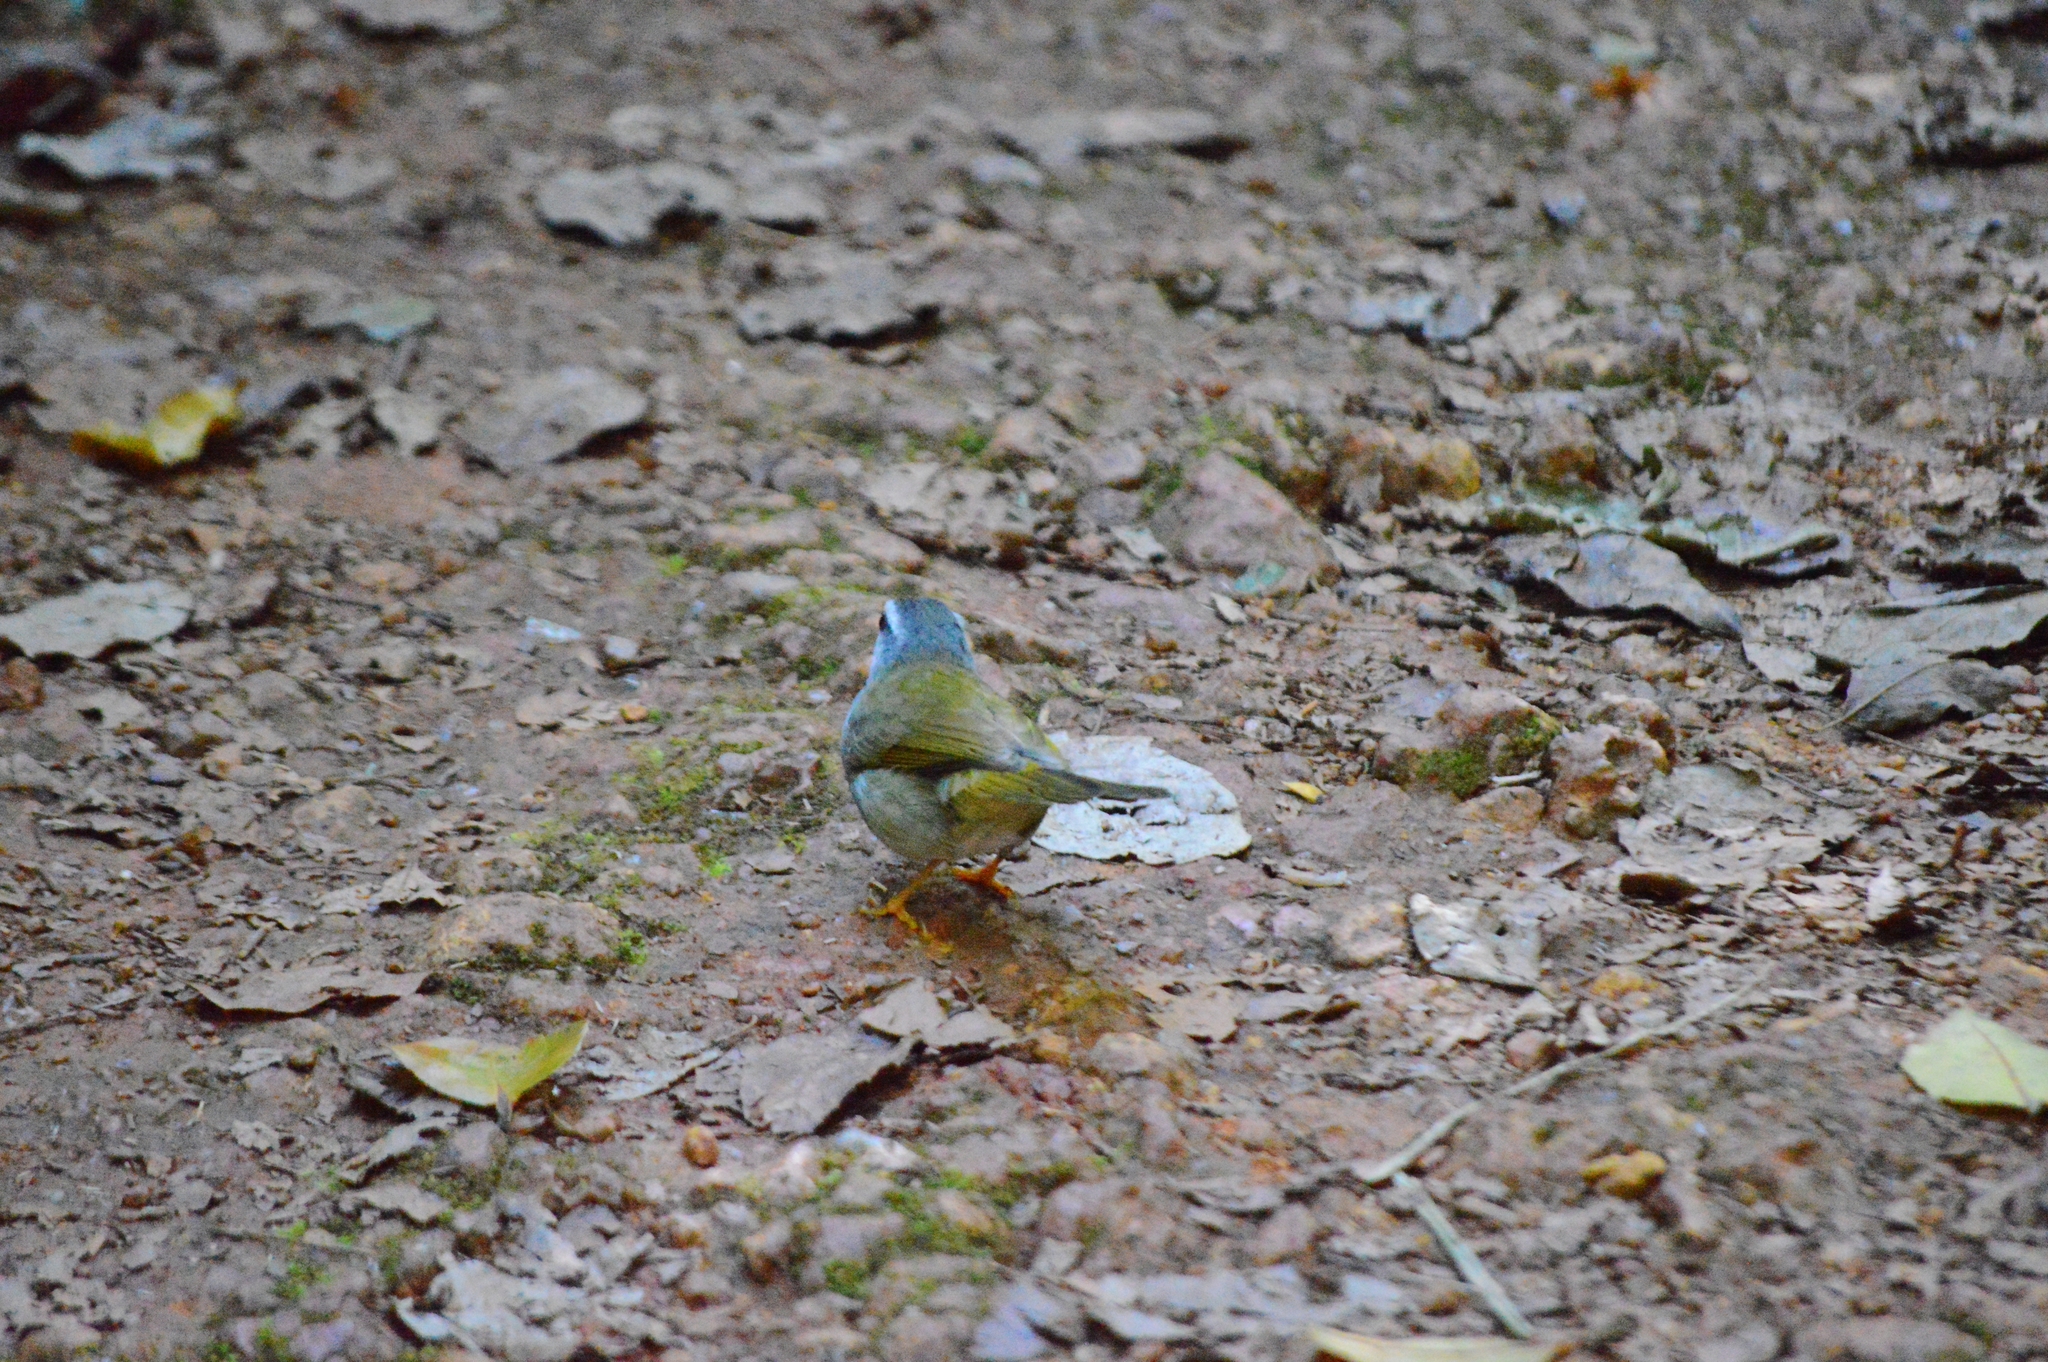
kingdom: Animalia
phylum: Chordata
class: Aves
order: Passeriformes
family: Parulidae
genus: Myiothlypis
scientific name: Myiothlypis leucophrys
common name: White-striped warbler
